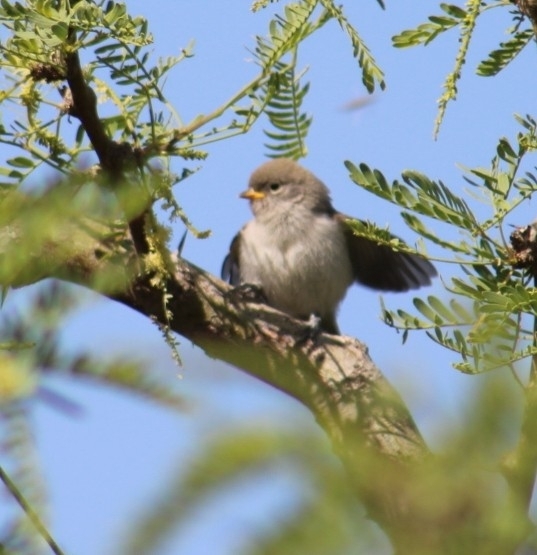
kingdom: Animalia
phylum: Chordata
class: Aves
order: Passeriformes
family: Remizidae
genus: Auriparus
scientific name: Auriparus flaviceps
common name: Verdin
